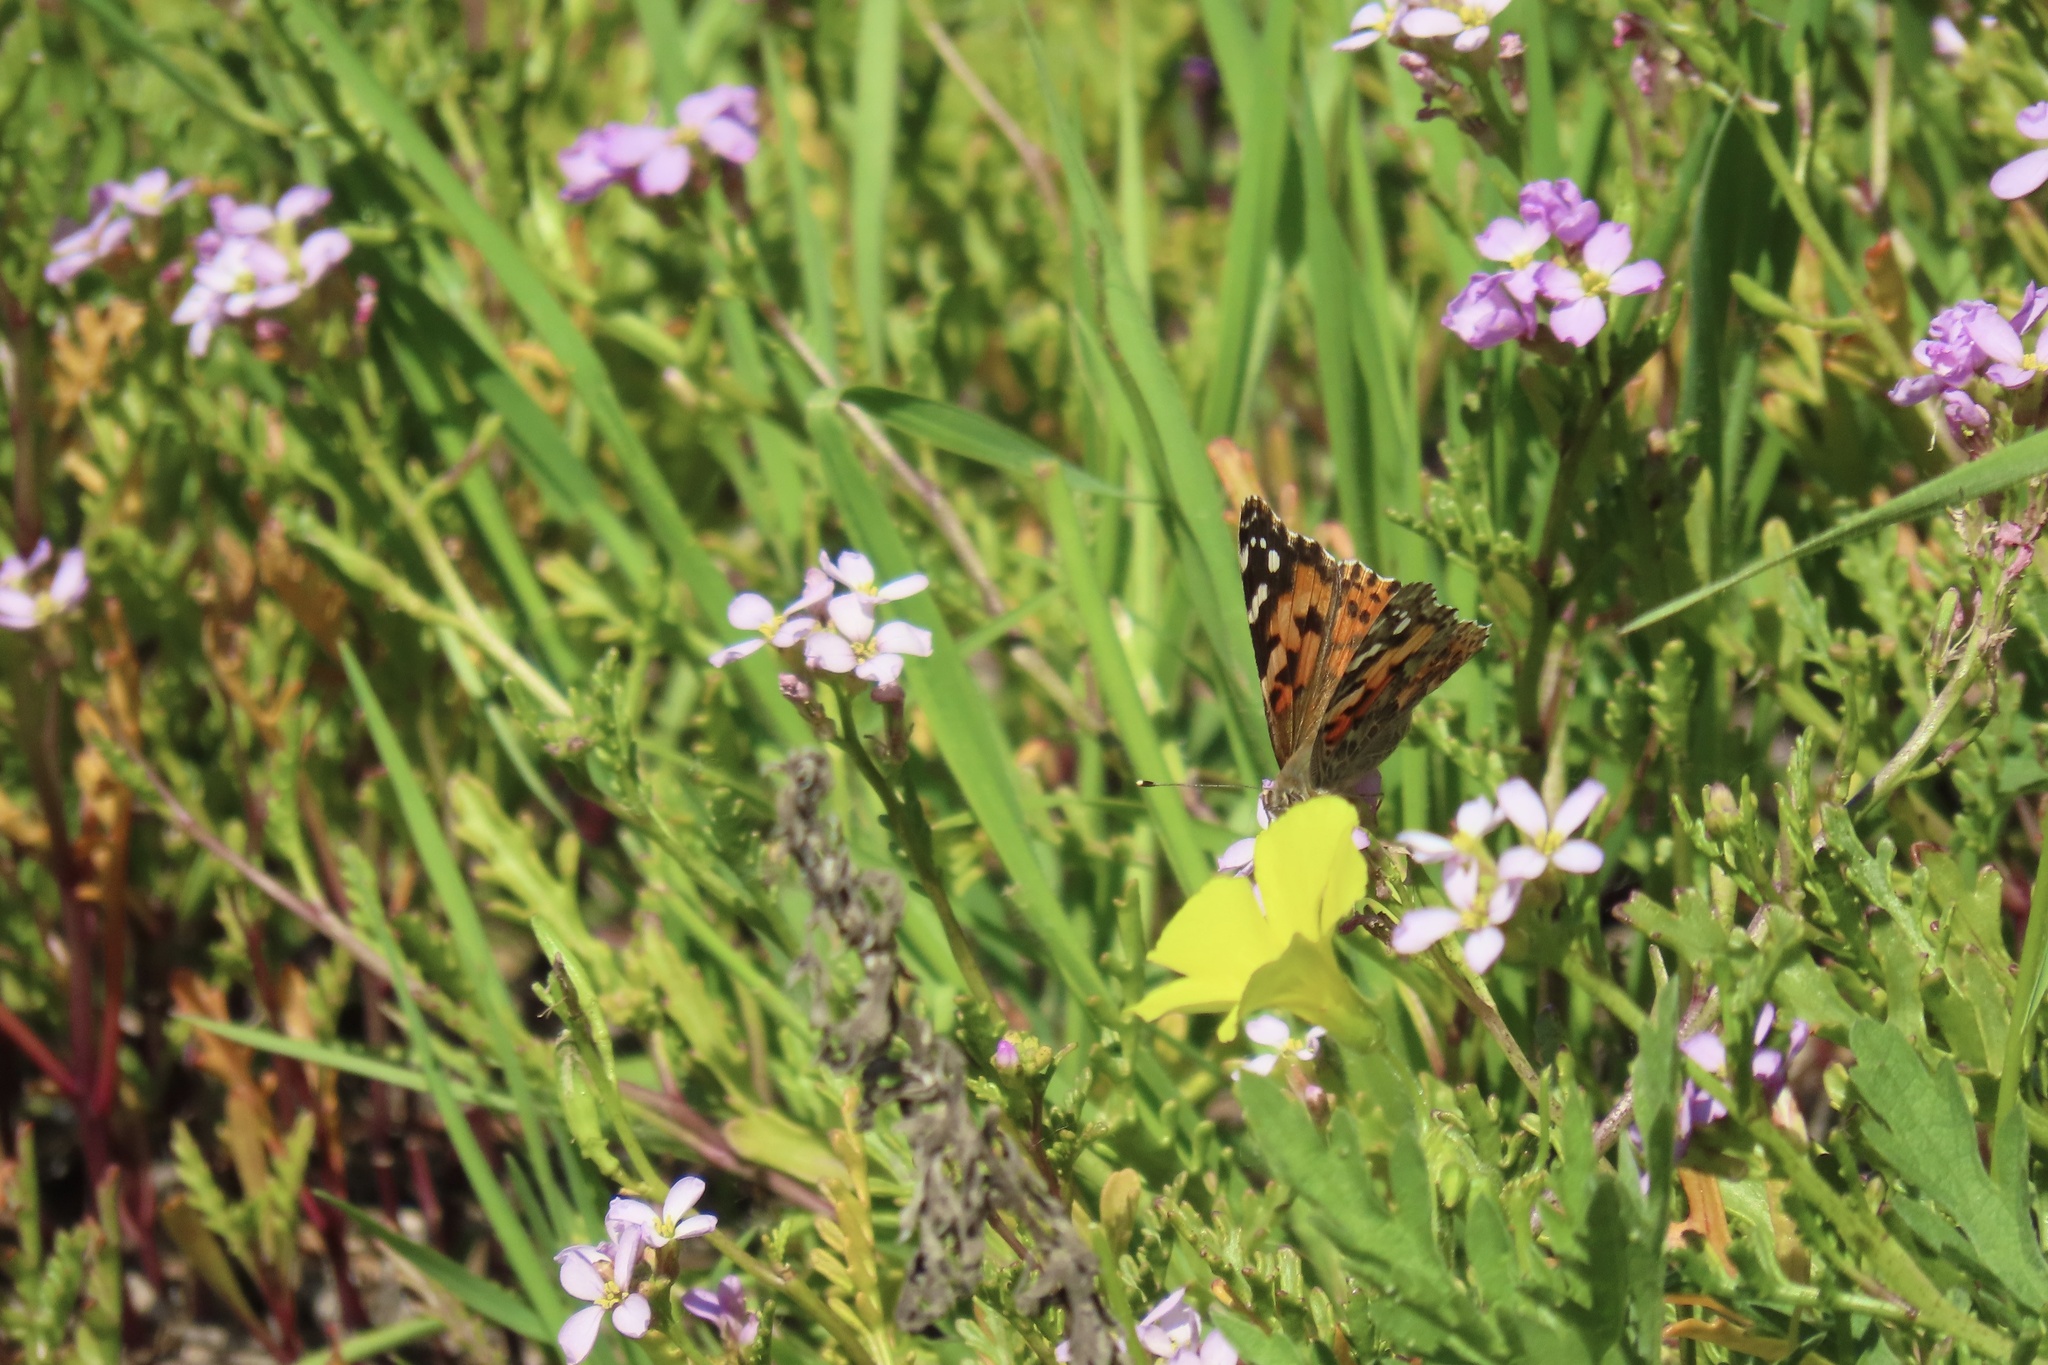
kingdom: Animalia
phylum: Arthropoda
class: Insecta
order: Lepidoptera
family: Nymphalidae
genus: Vanessa
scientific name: Vanessa cardui
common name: Painted lady
